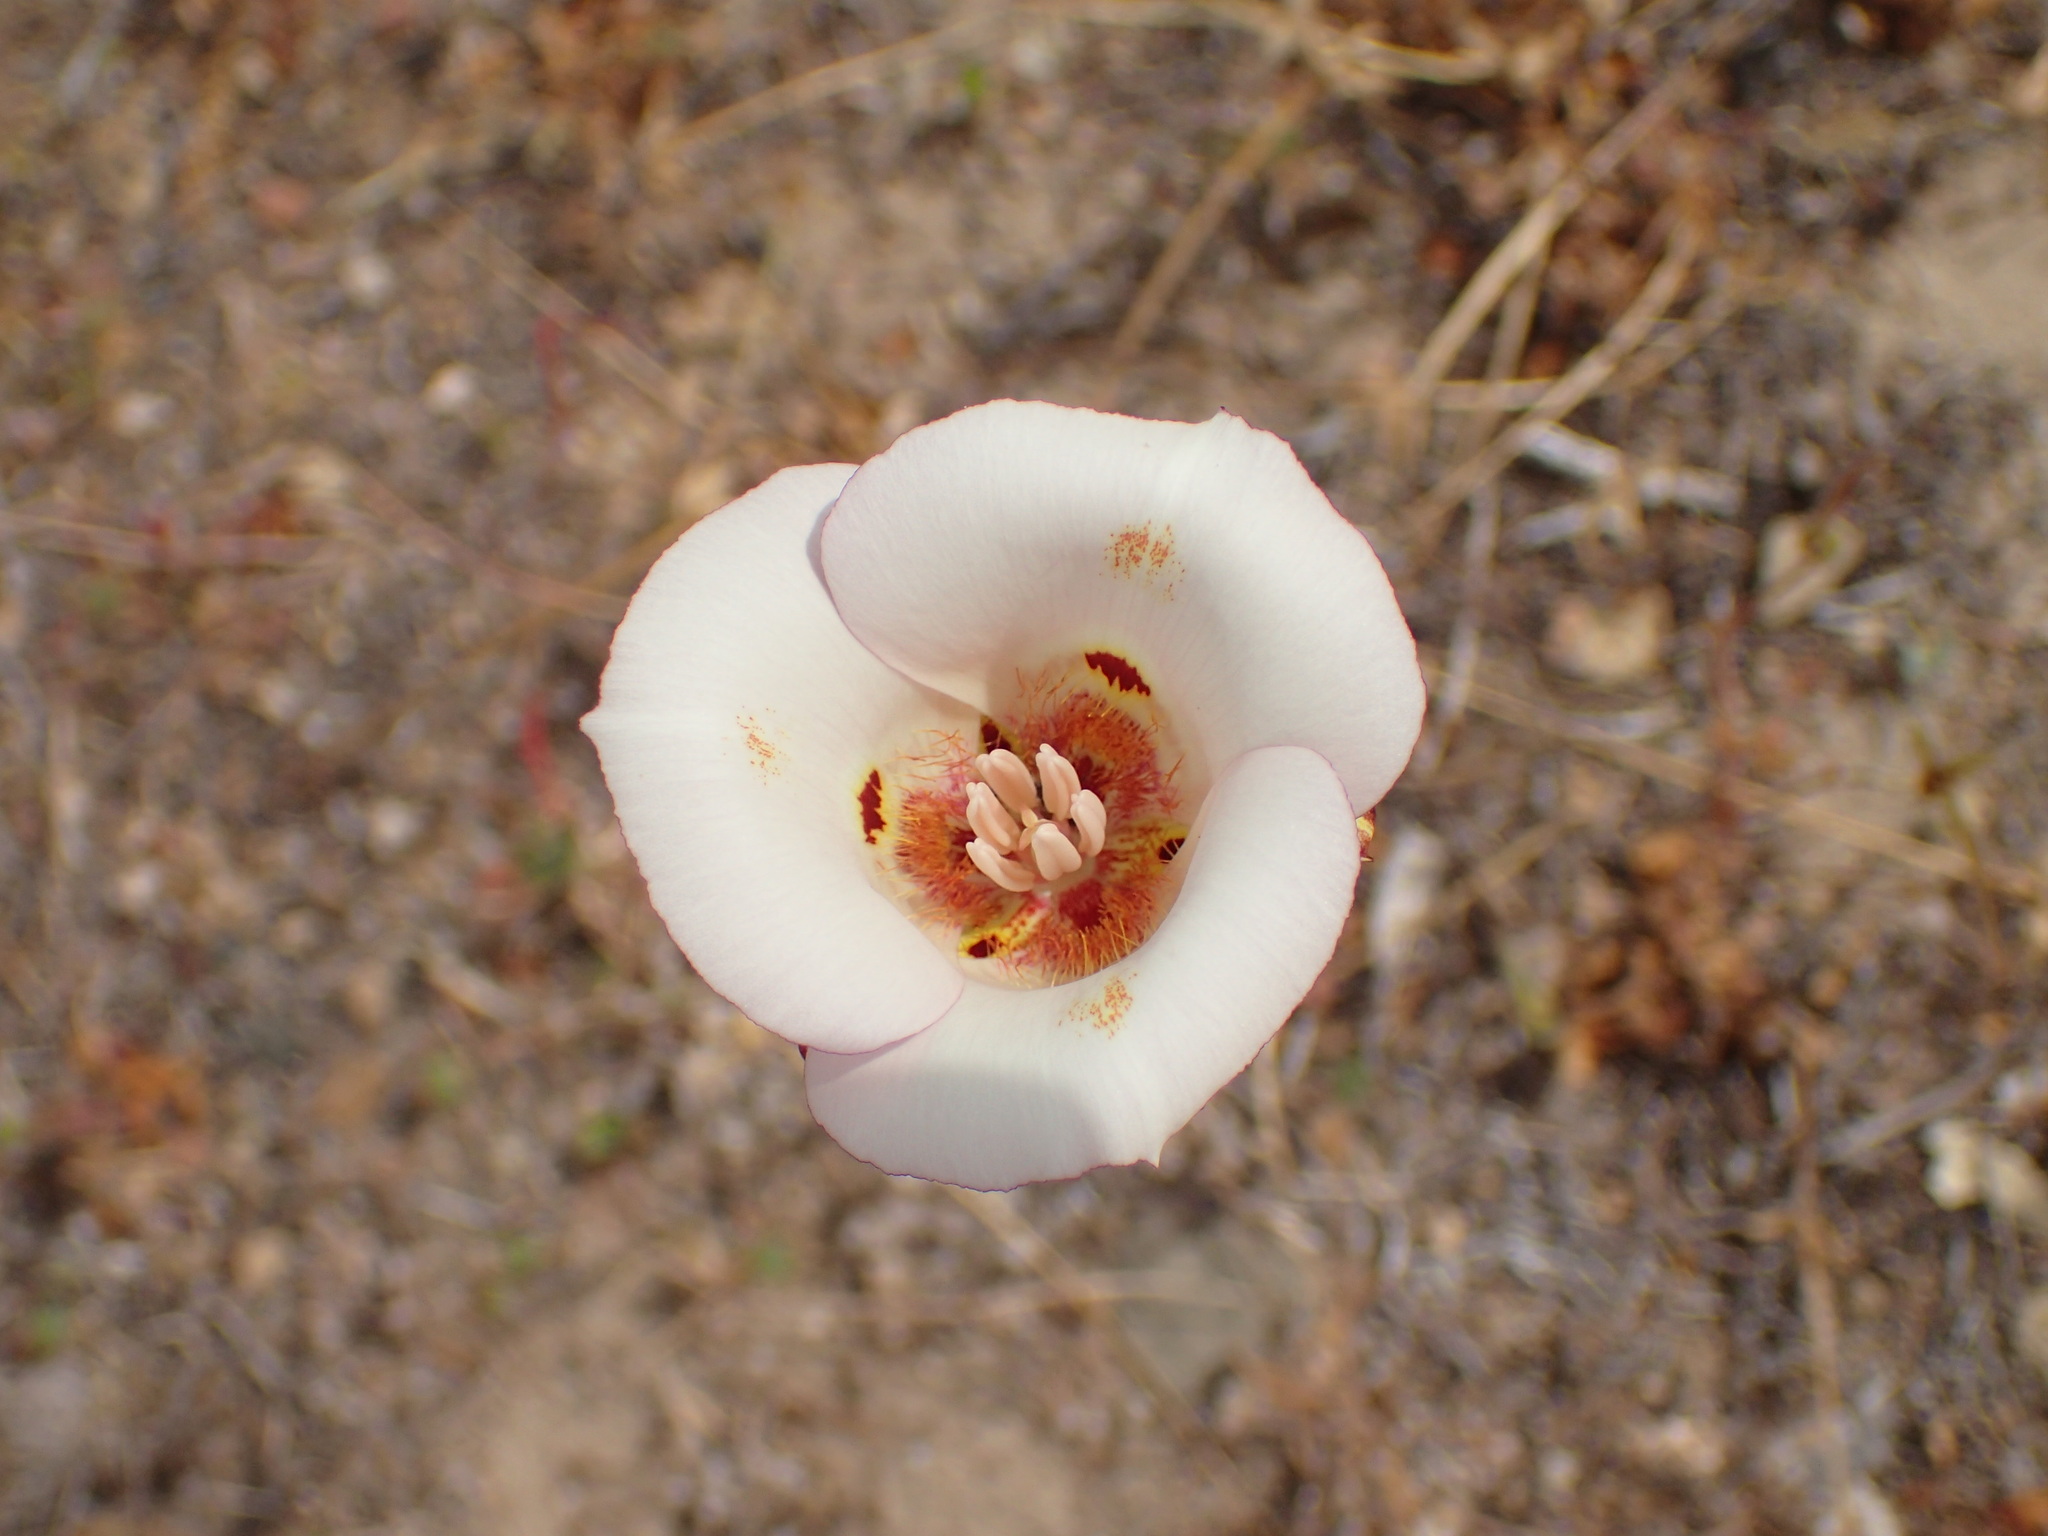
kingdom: Plantae
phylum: Tracheophyta
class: Liliopsida
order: Liliales
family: Liliaceae
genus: Calochortus
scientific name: Calochortus venustus
